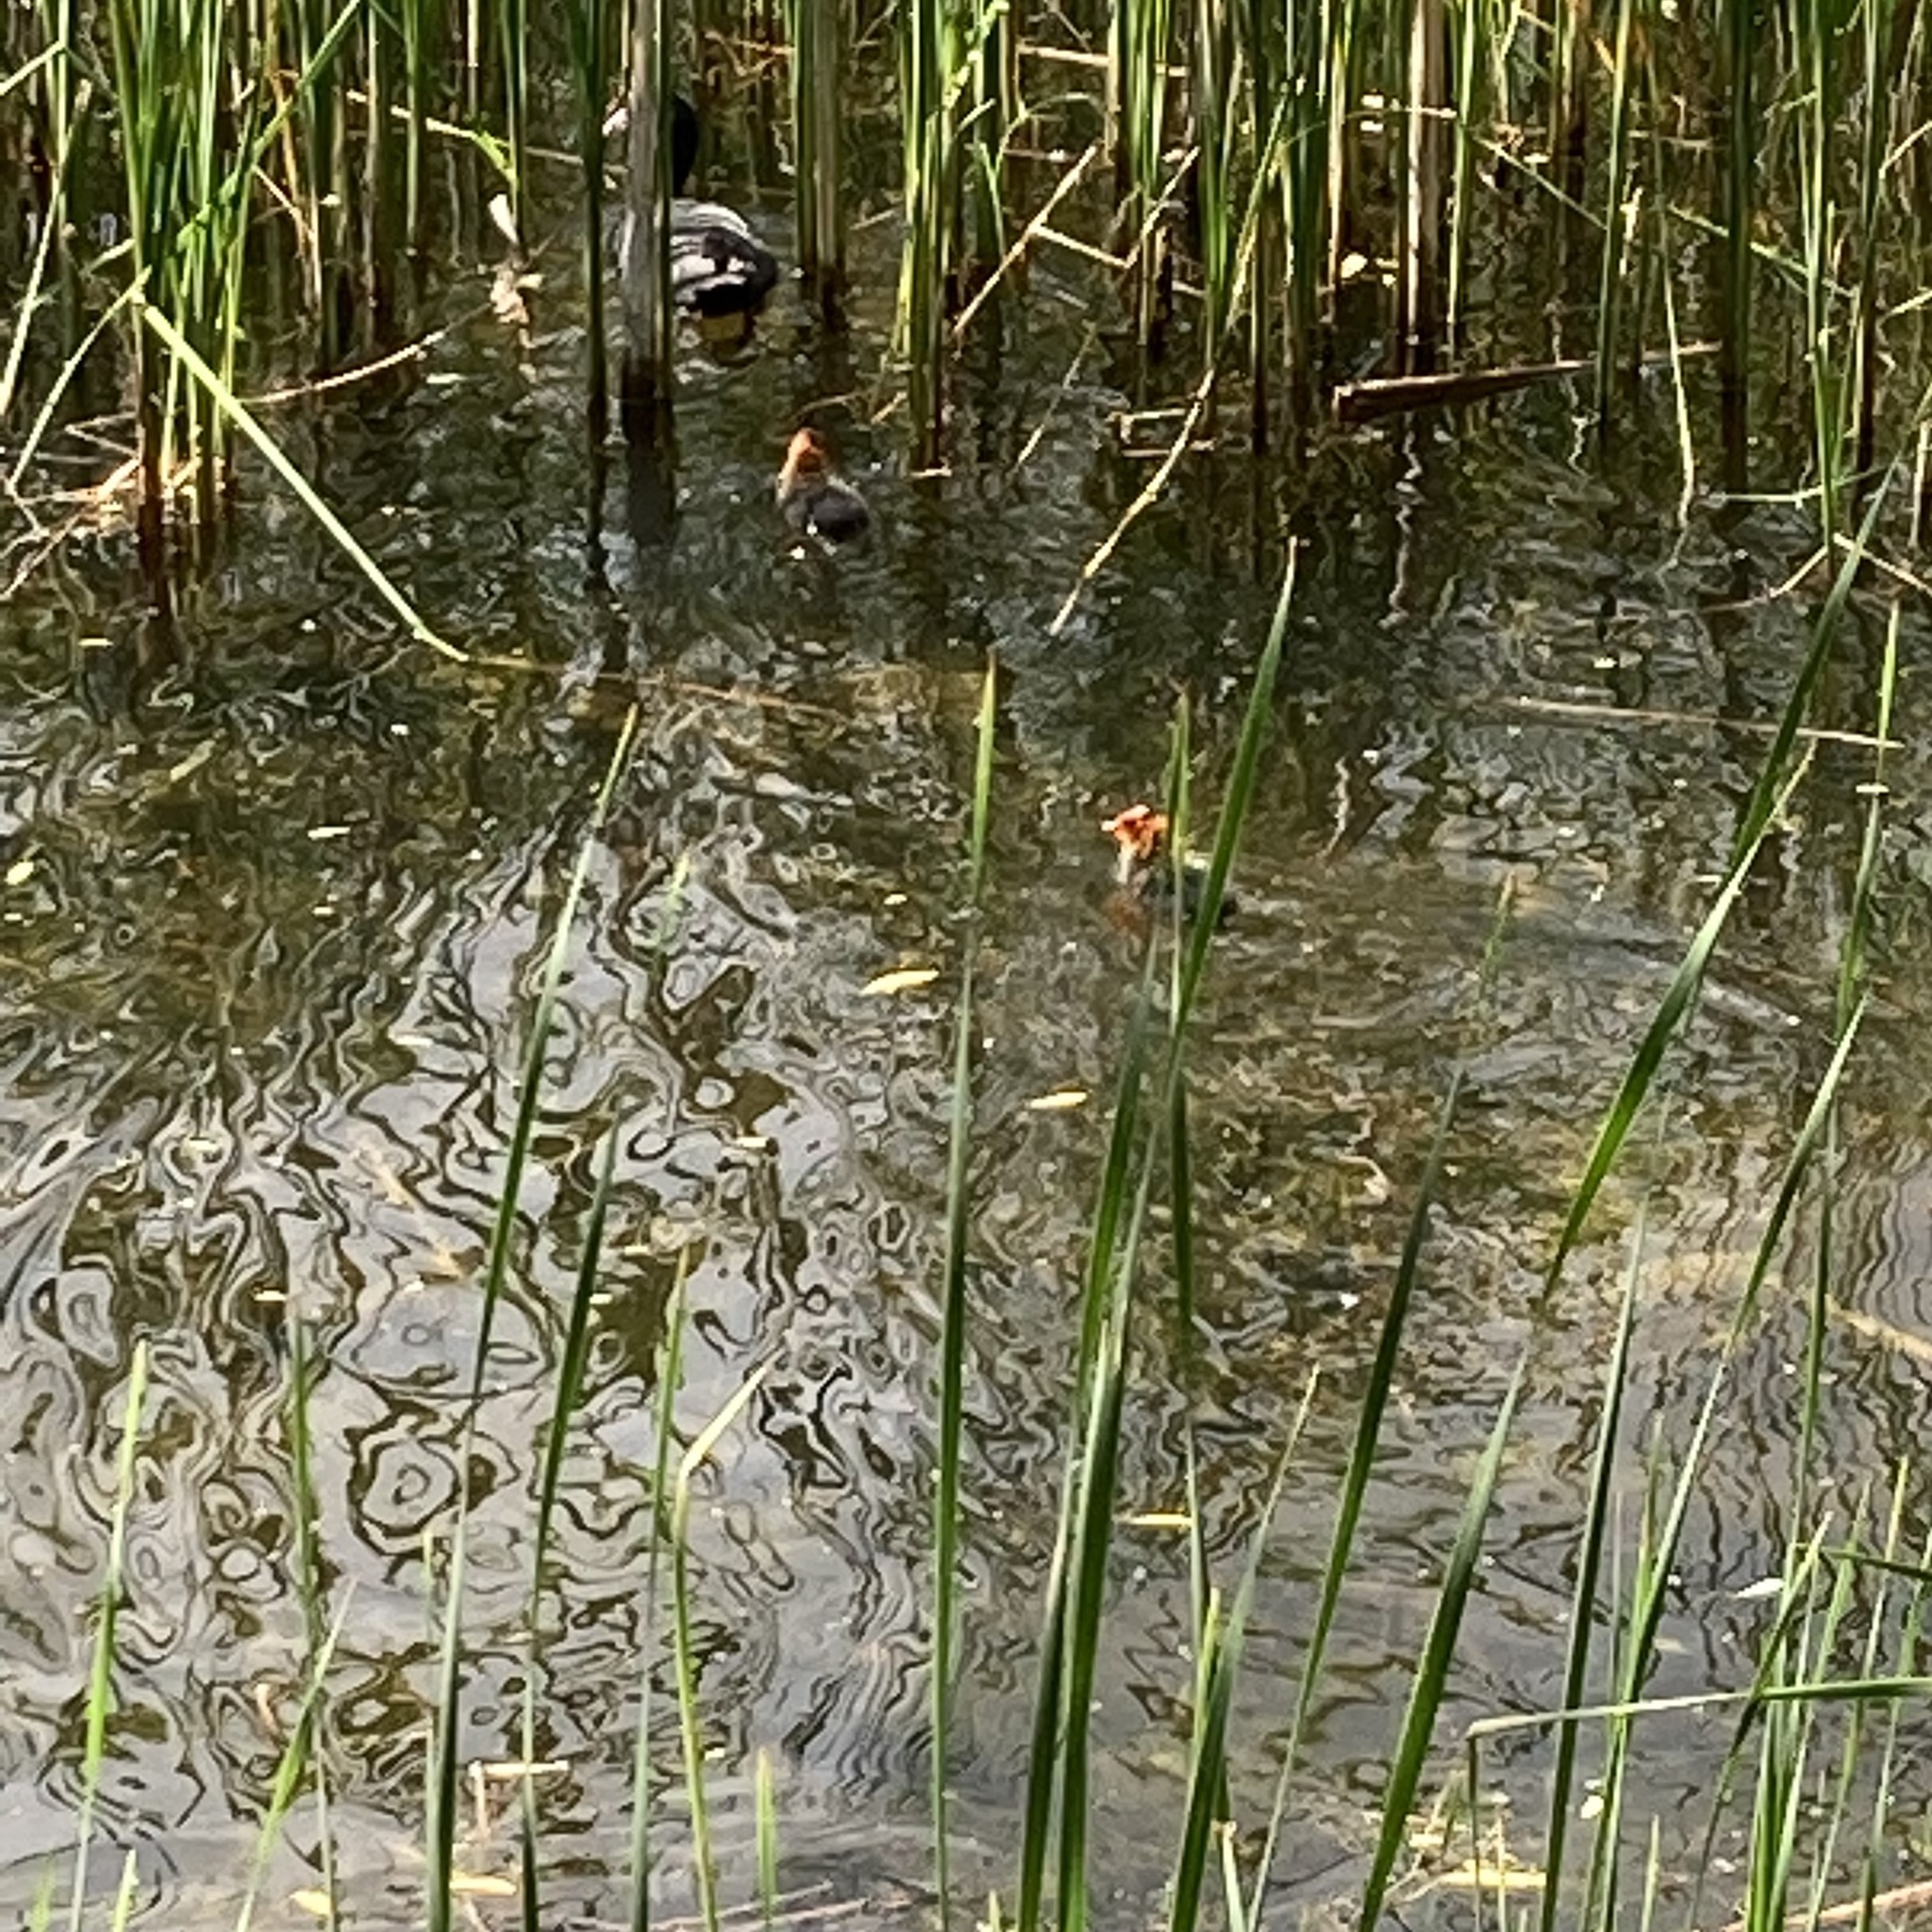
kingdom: Animalia
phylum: Chordata
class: Aves
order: Gruiformes
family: Rallidae
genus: Fulica
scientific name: Fulica atra
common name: Eurasian coot
